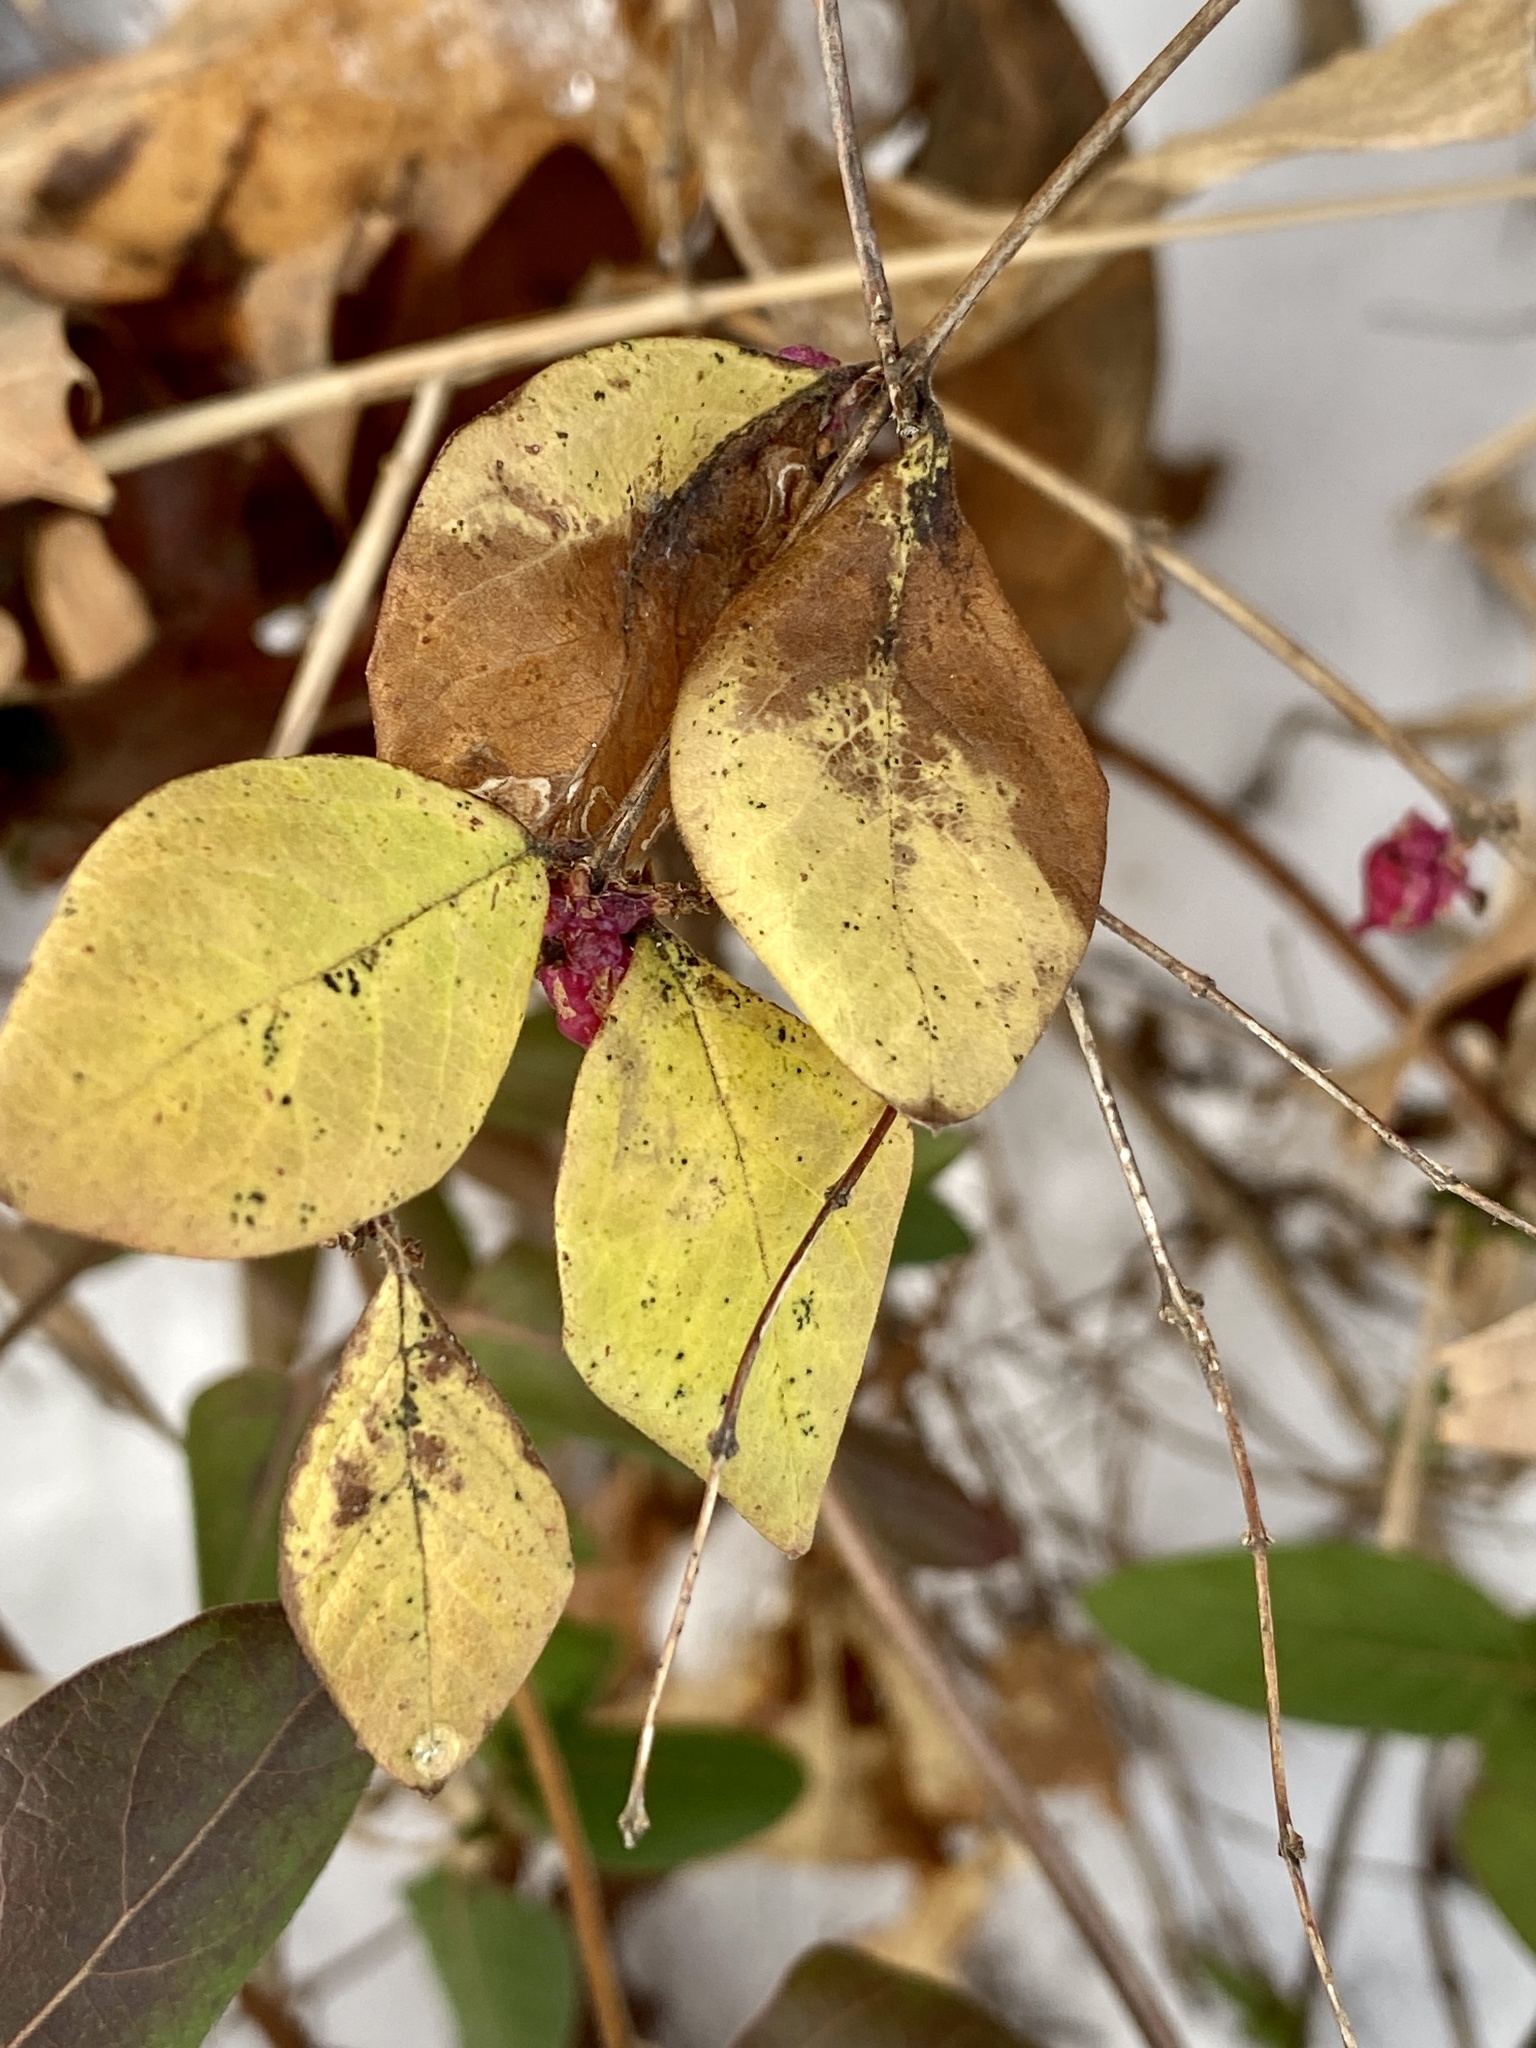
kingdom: Plantae
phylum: Tracheophyta
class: Magnoliopsida
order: Dipsacales
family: Caprifoliaceae
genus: Symphoricarpos
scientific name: Symphoricarpos orbiculatus
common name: Coralberry
